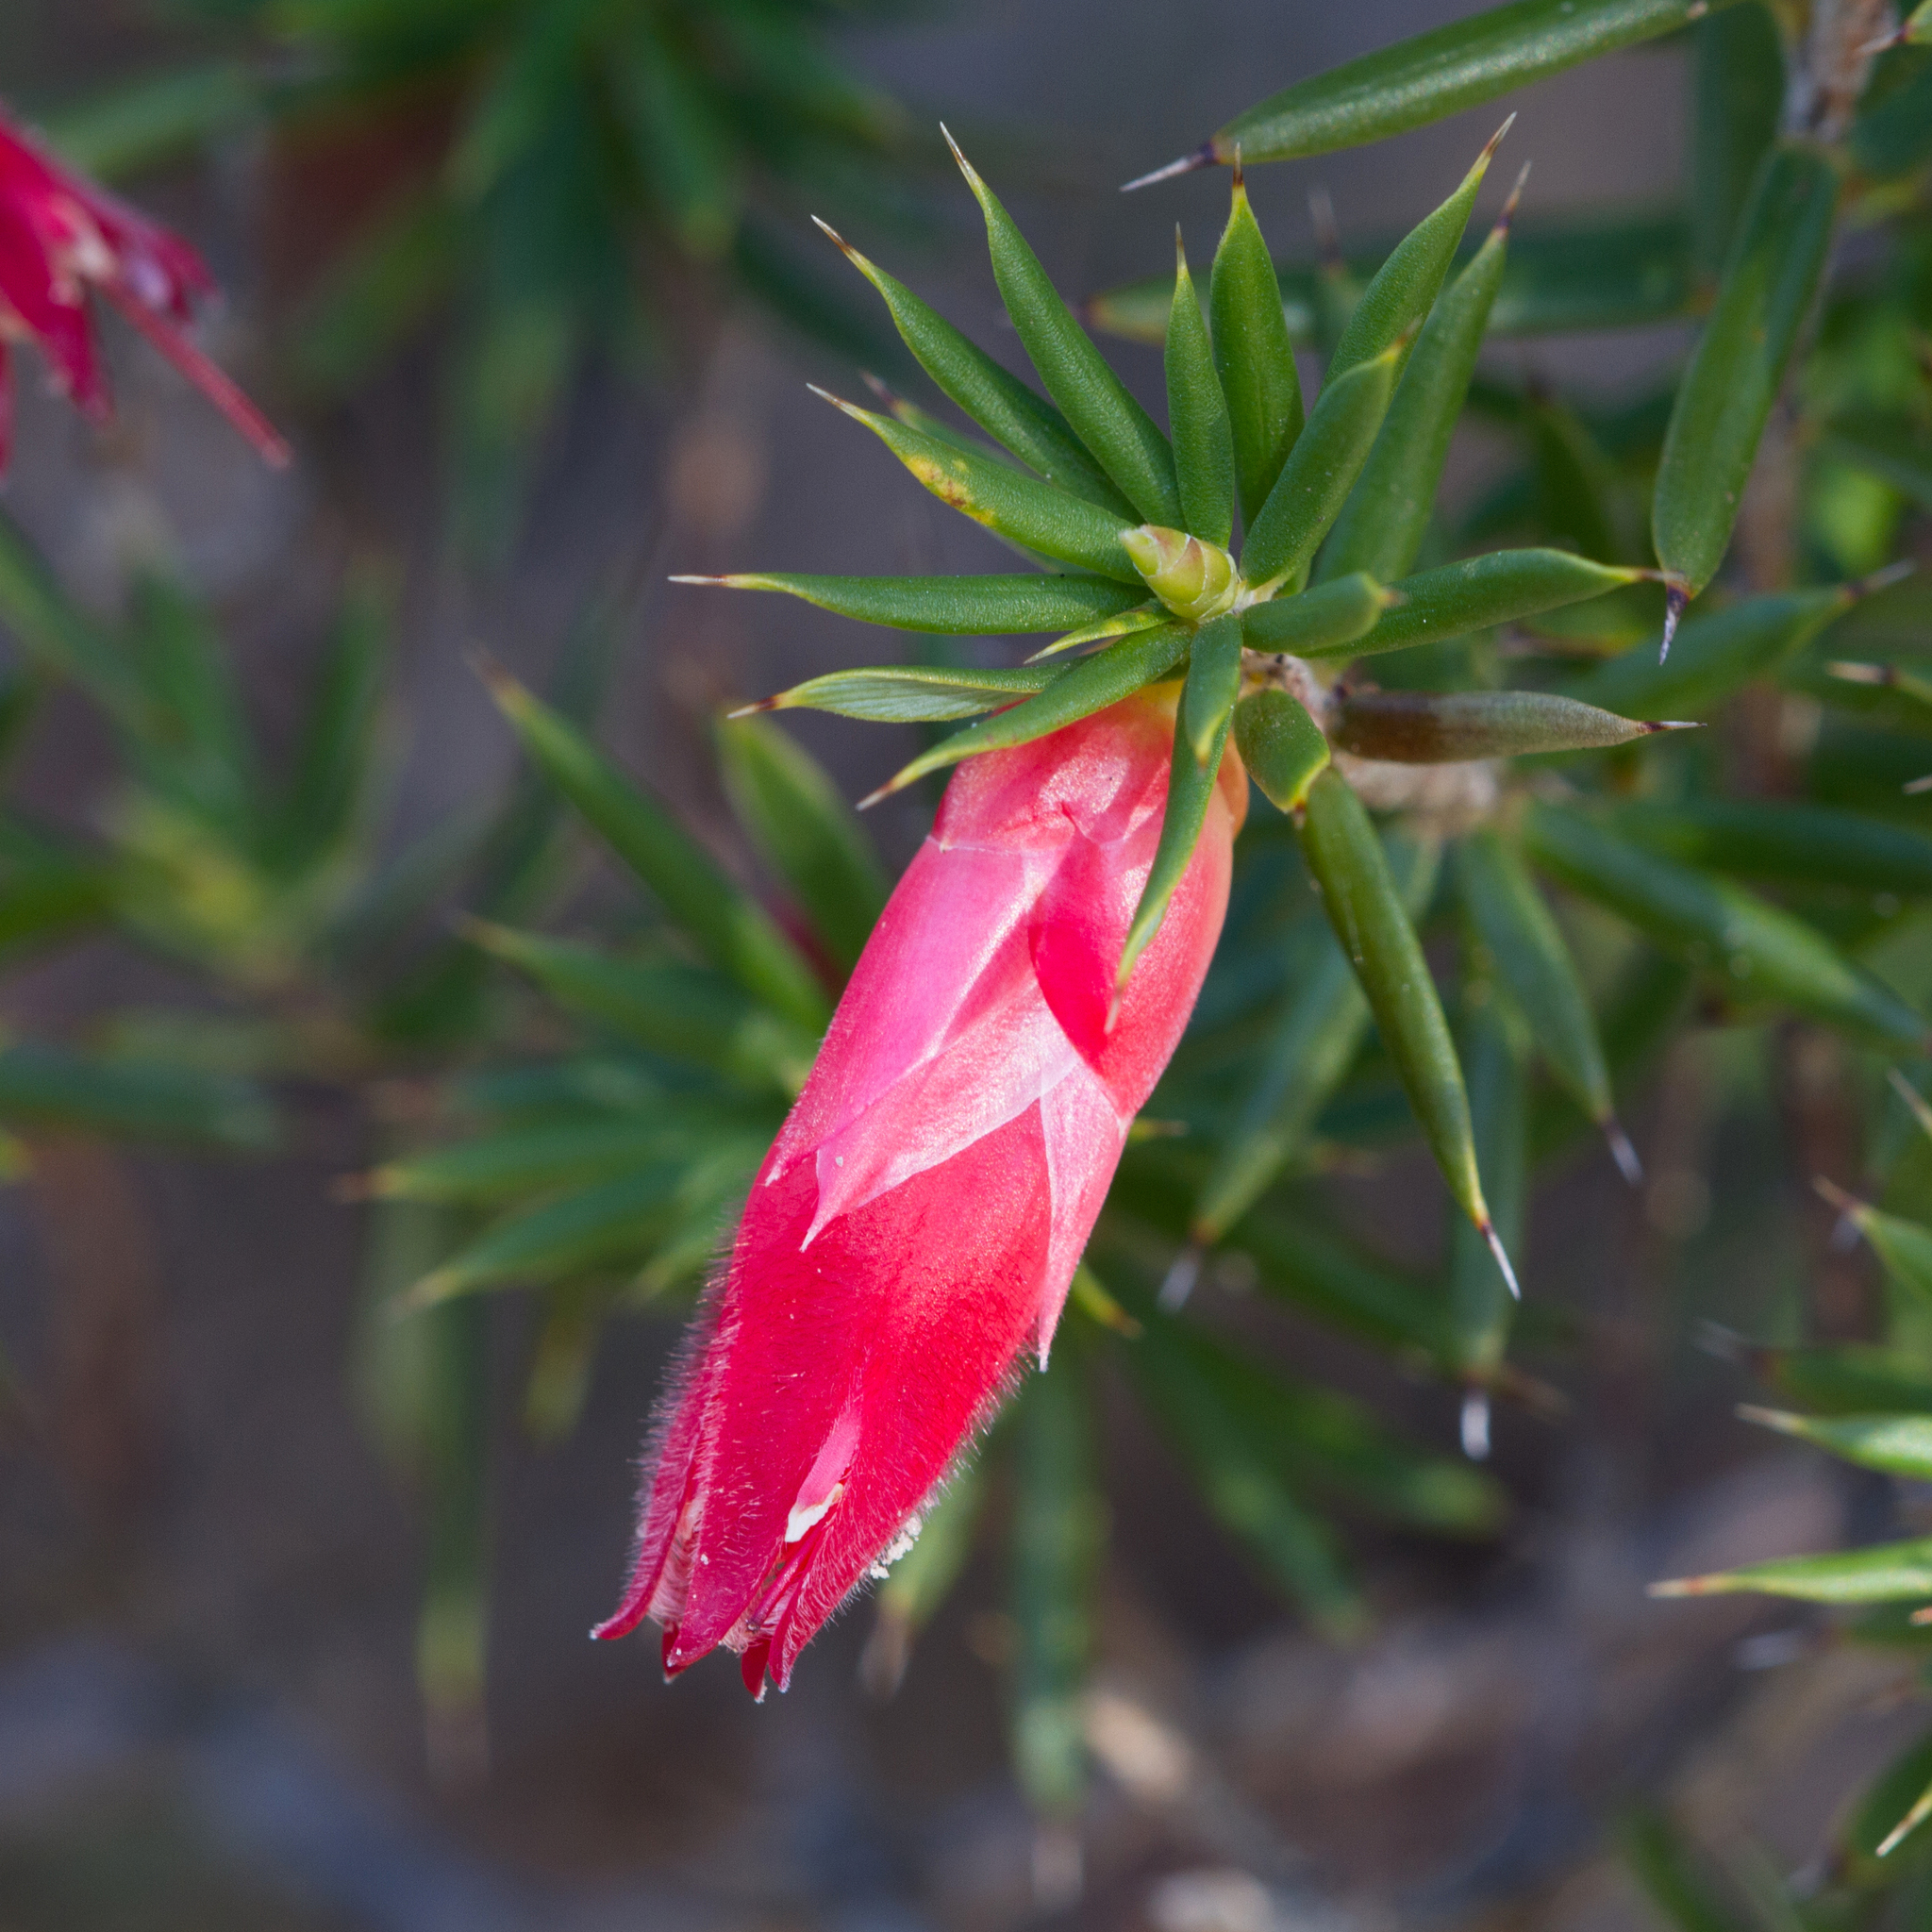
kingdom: Plantae
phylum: Tracheophyta
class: Magnoliopsida
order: Ericales
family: Ericaceae
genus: Stenanthera
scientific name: Stenanthera conostephioides
